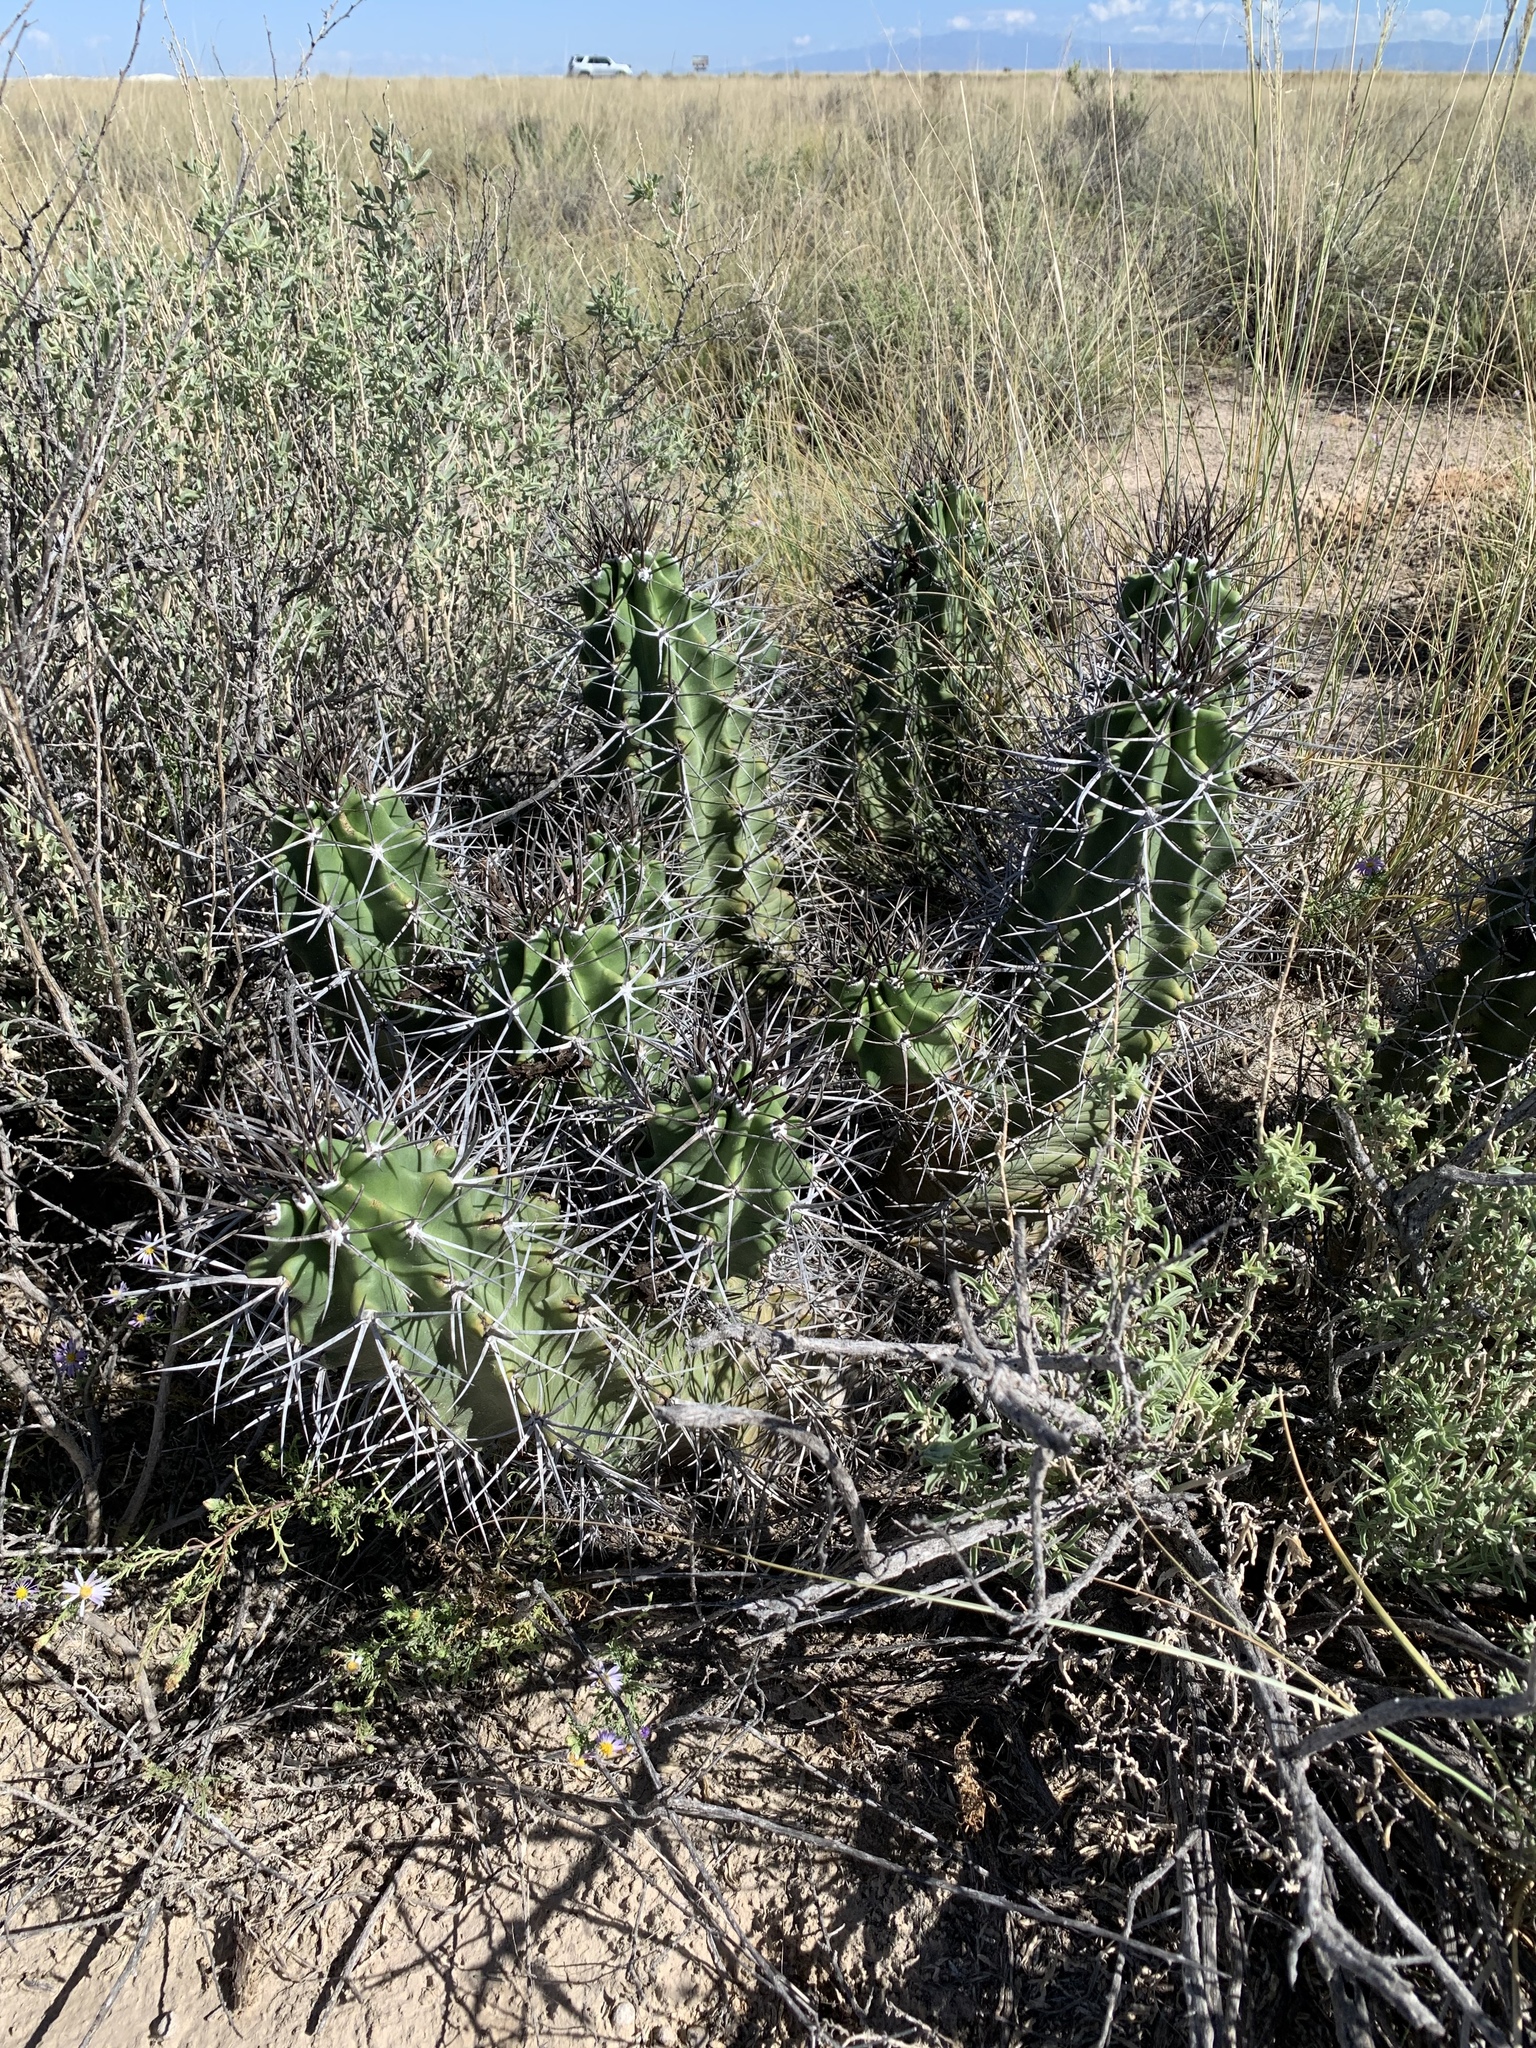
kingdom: Plantae
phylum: Tracheophyta
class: Magnoliopsida
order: Caryophyllales
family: Cactaceae
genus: Echinocereus
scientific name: Echinocereus triglochidiatus
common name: Claretcup hedgehog
